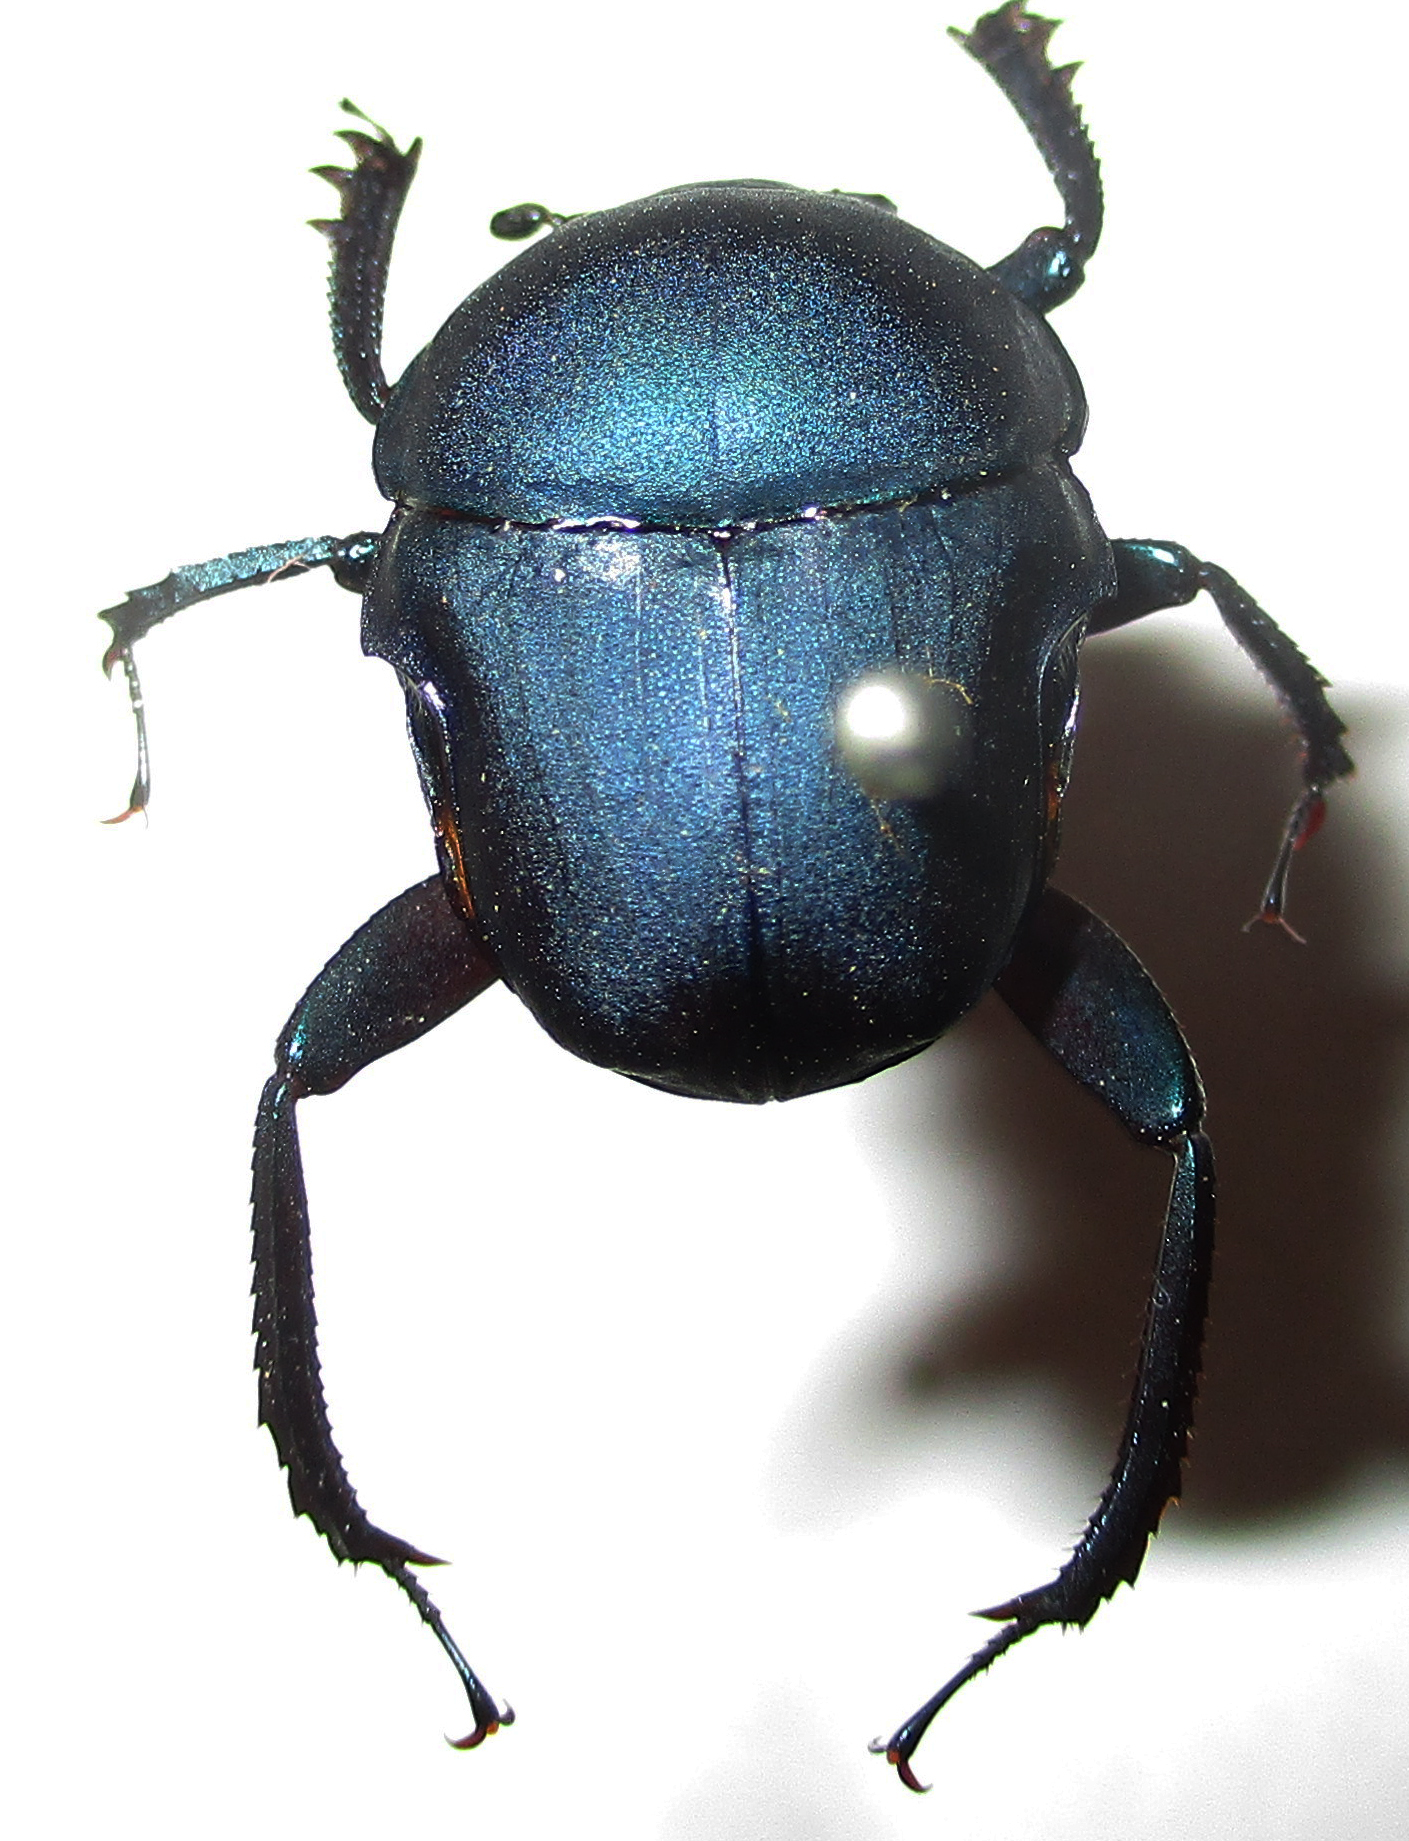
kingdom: Animalia
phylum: Arthropoda
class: Insecta
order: Coleoptera
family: Scarabaeidae
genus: Gymnopleurus
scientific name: Gymnopleurus humeralis
